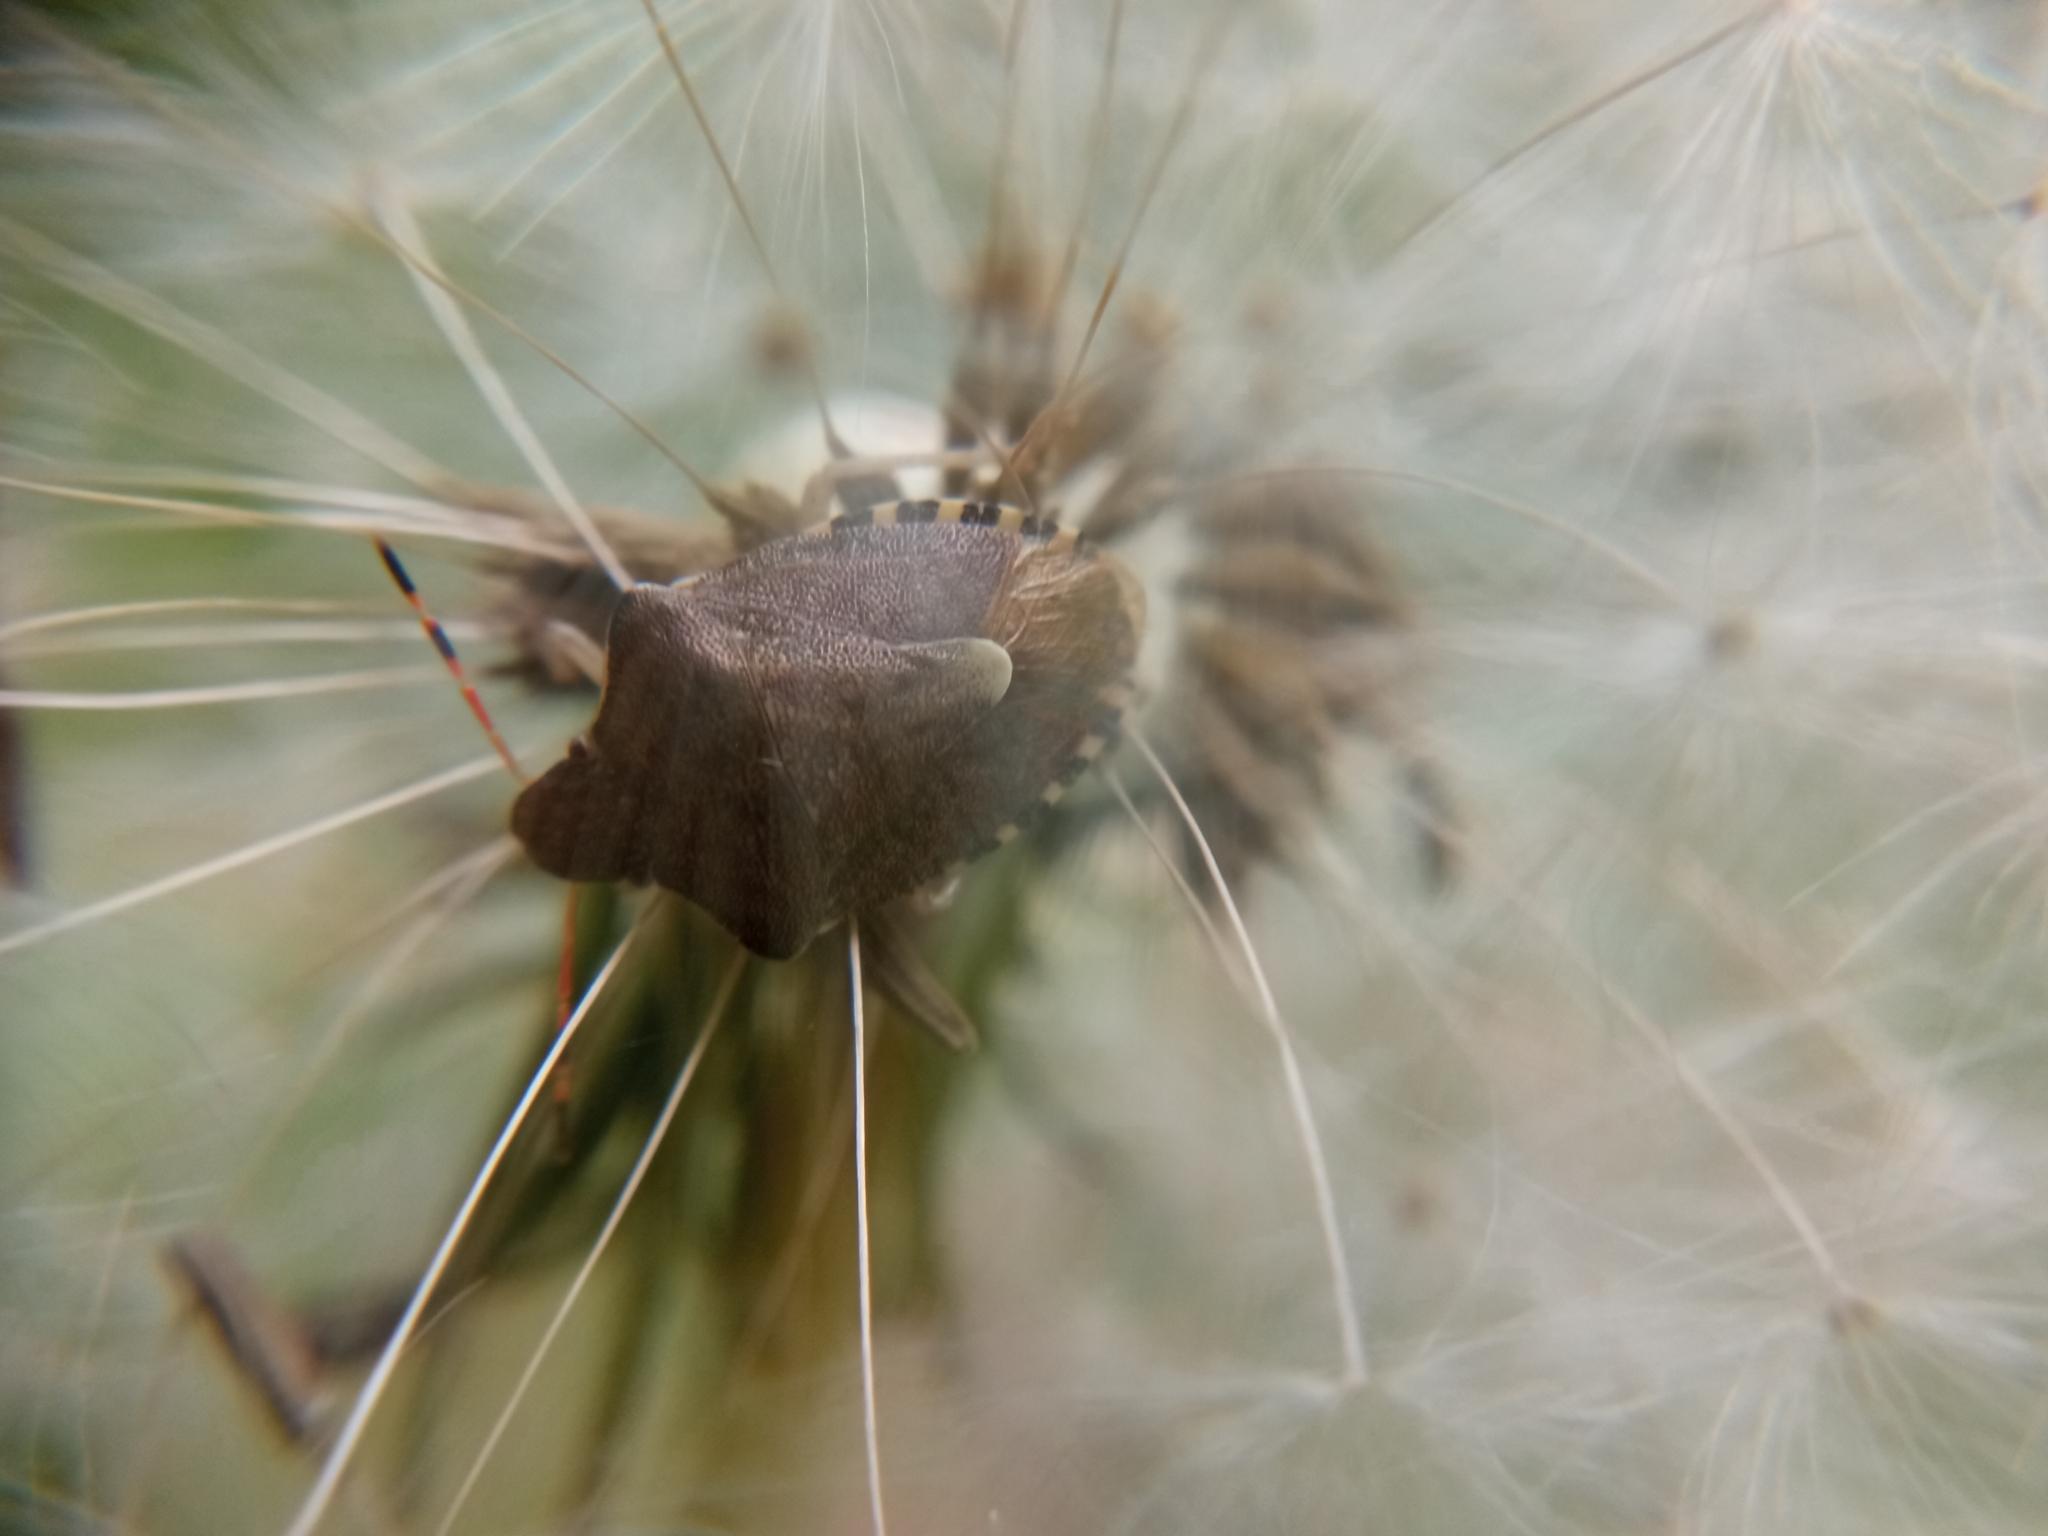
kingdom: Animalia
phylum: Arthropoda
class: Insecta
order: Hemiptera
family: Pentatomidae
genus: Holcostethus
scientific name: Holcostethus strictus
